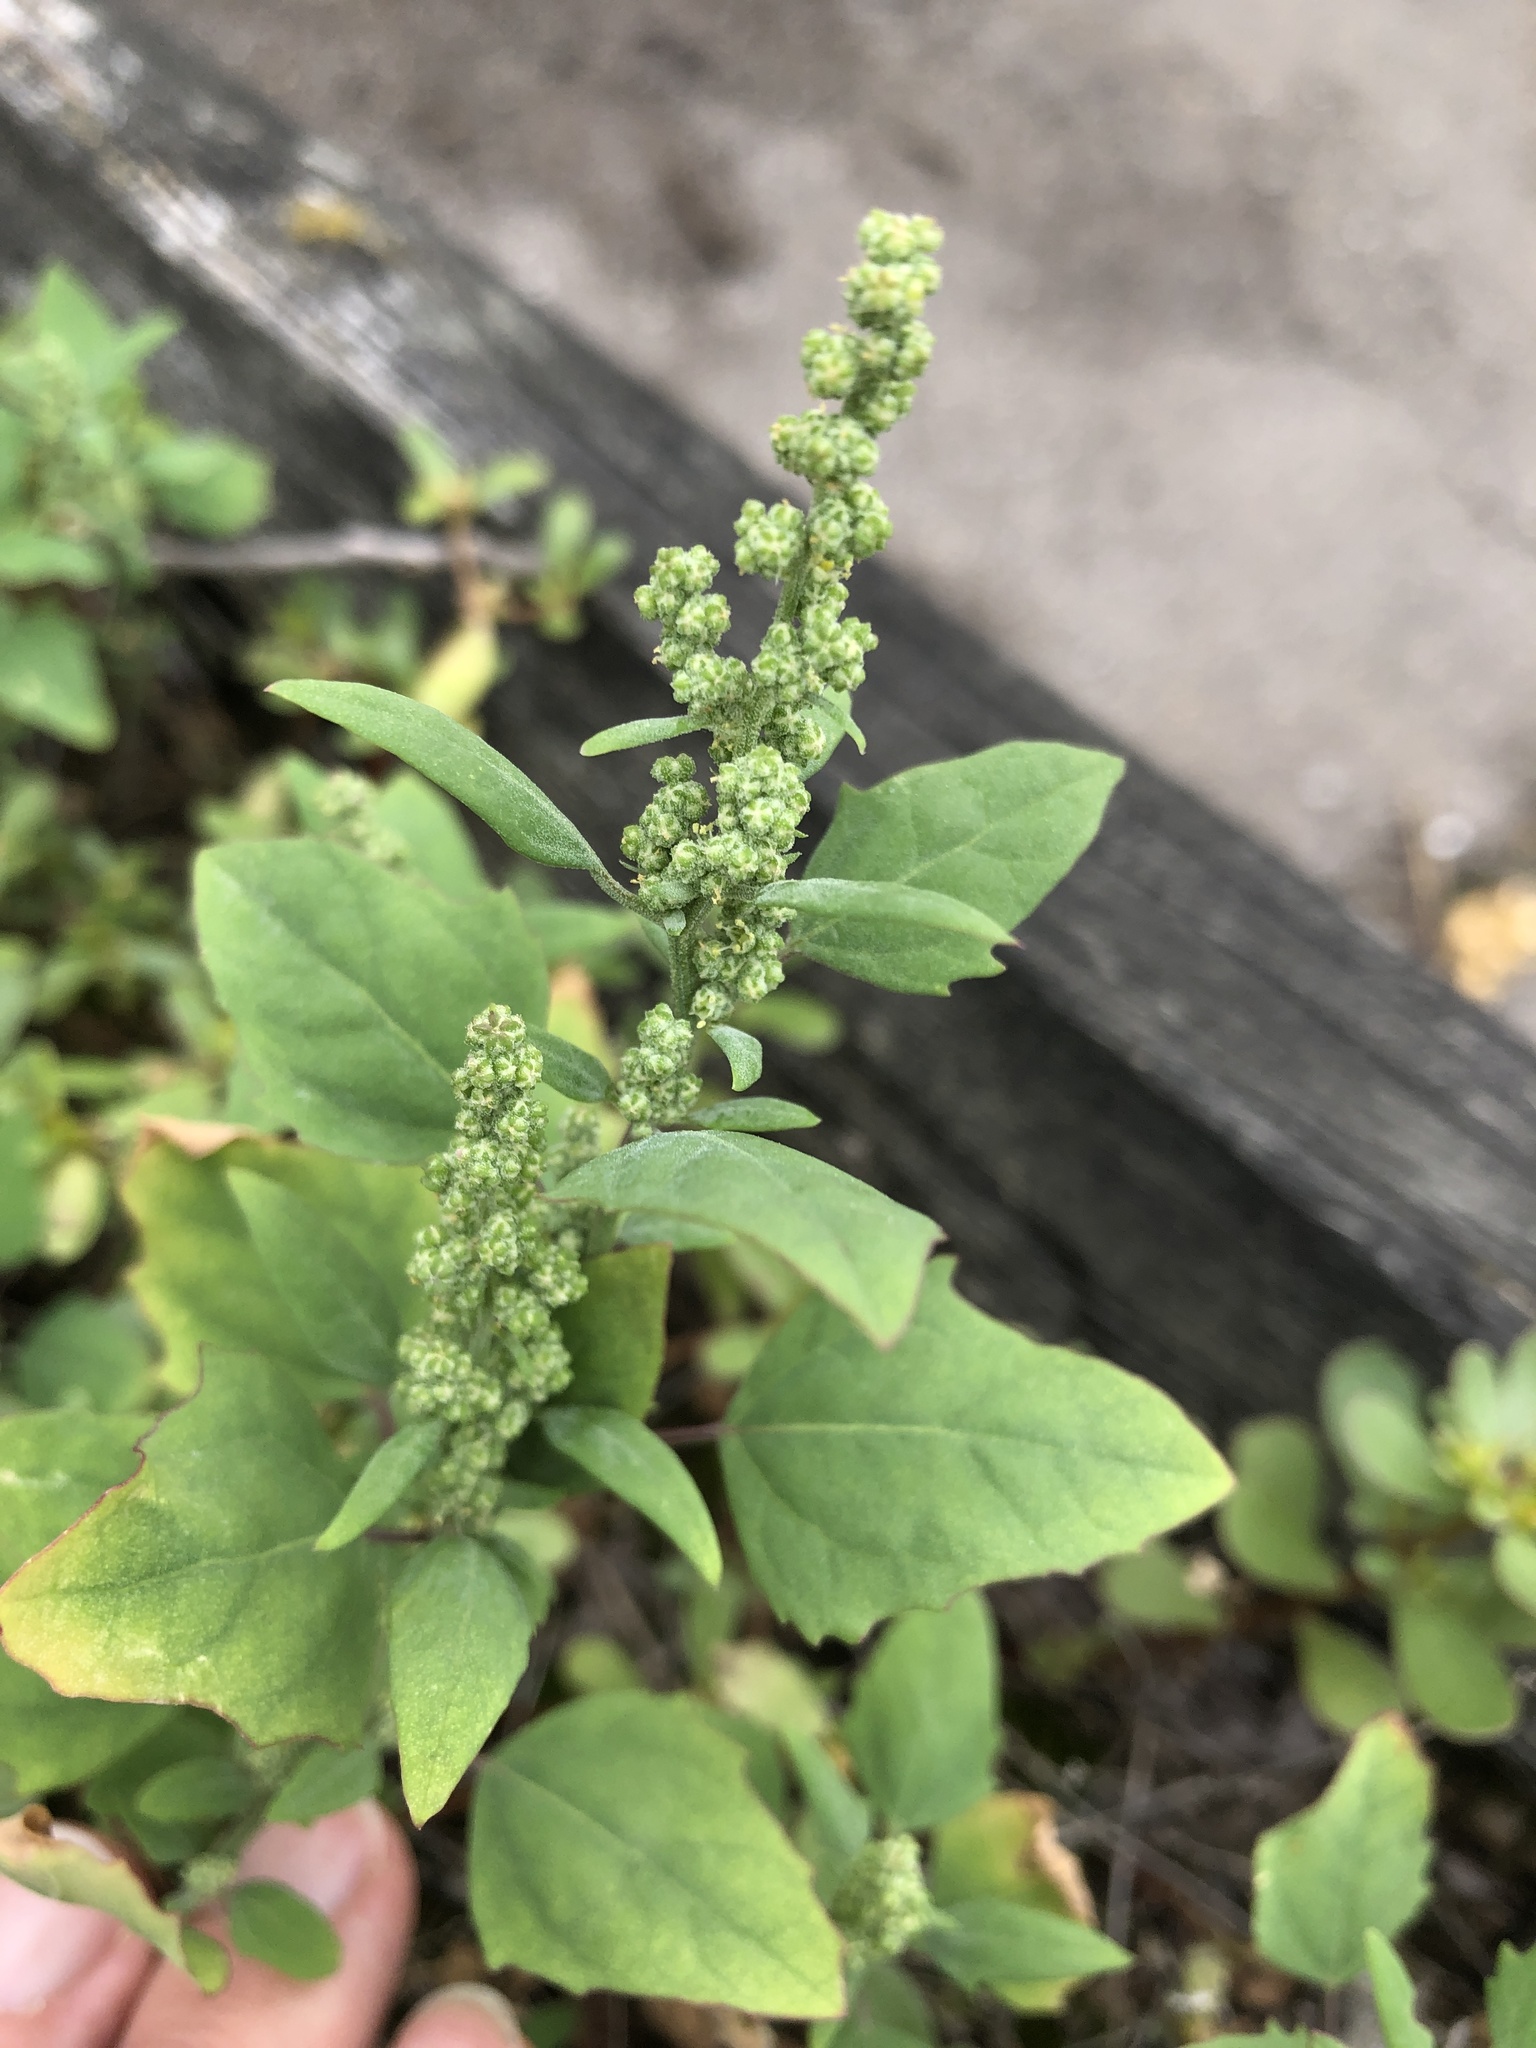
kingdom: Plantae
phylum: Tracheophyta
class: Magnoliopsida
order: Caryophyllales
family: Amaranthaceae
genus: Chenopodium
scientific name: Chenopodium album
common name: Fat-hen
